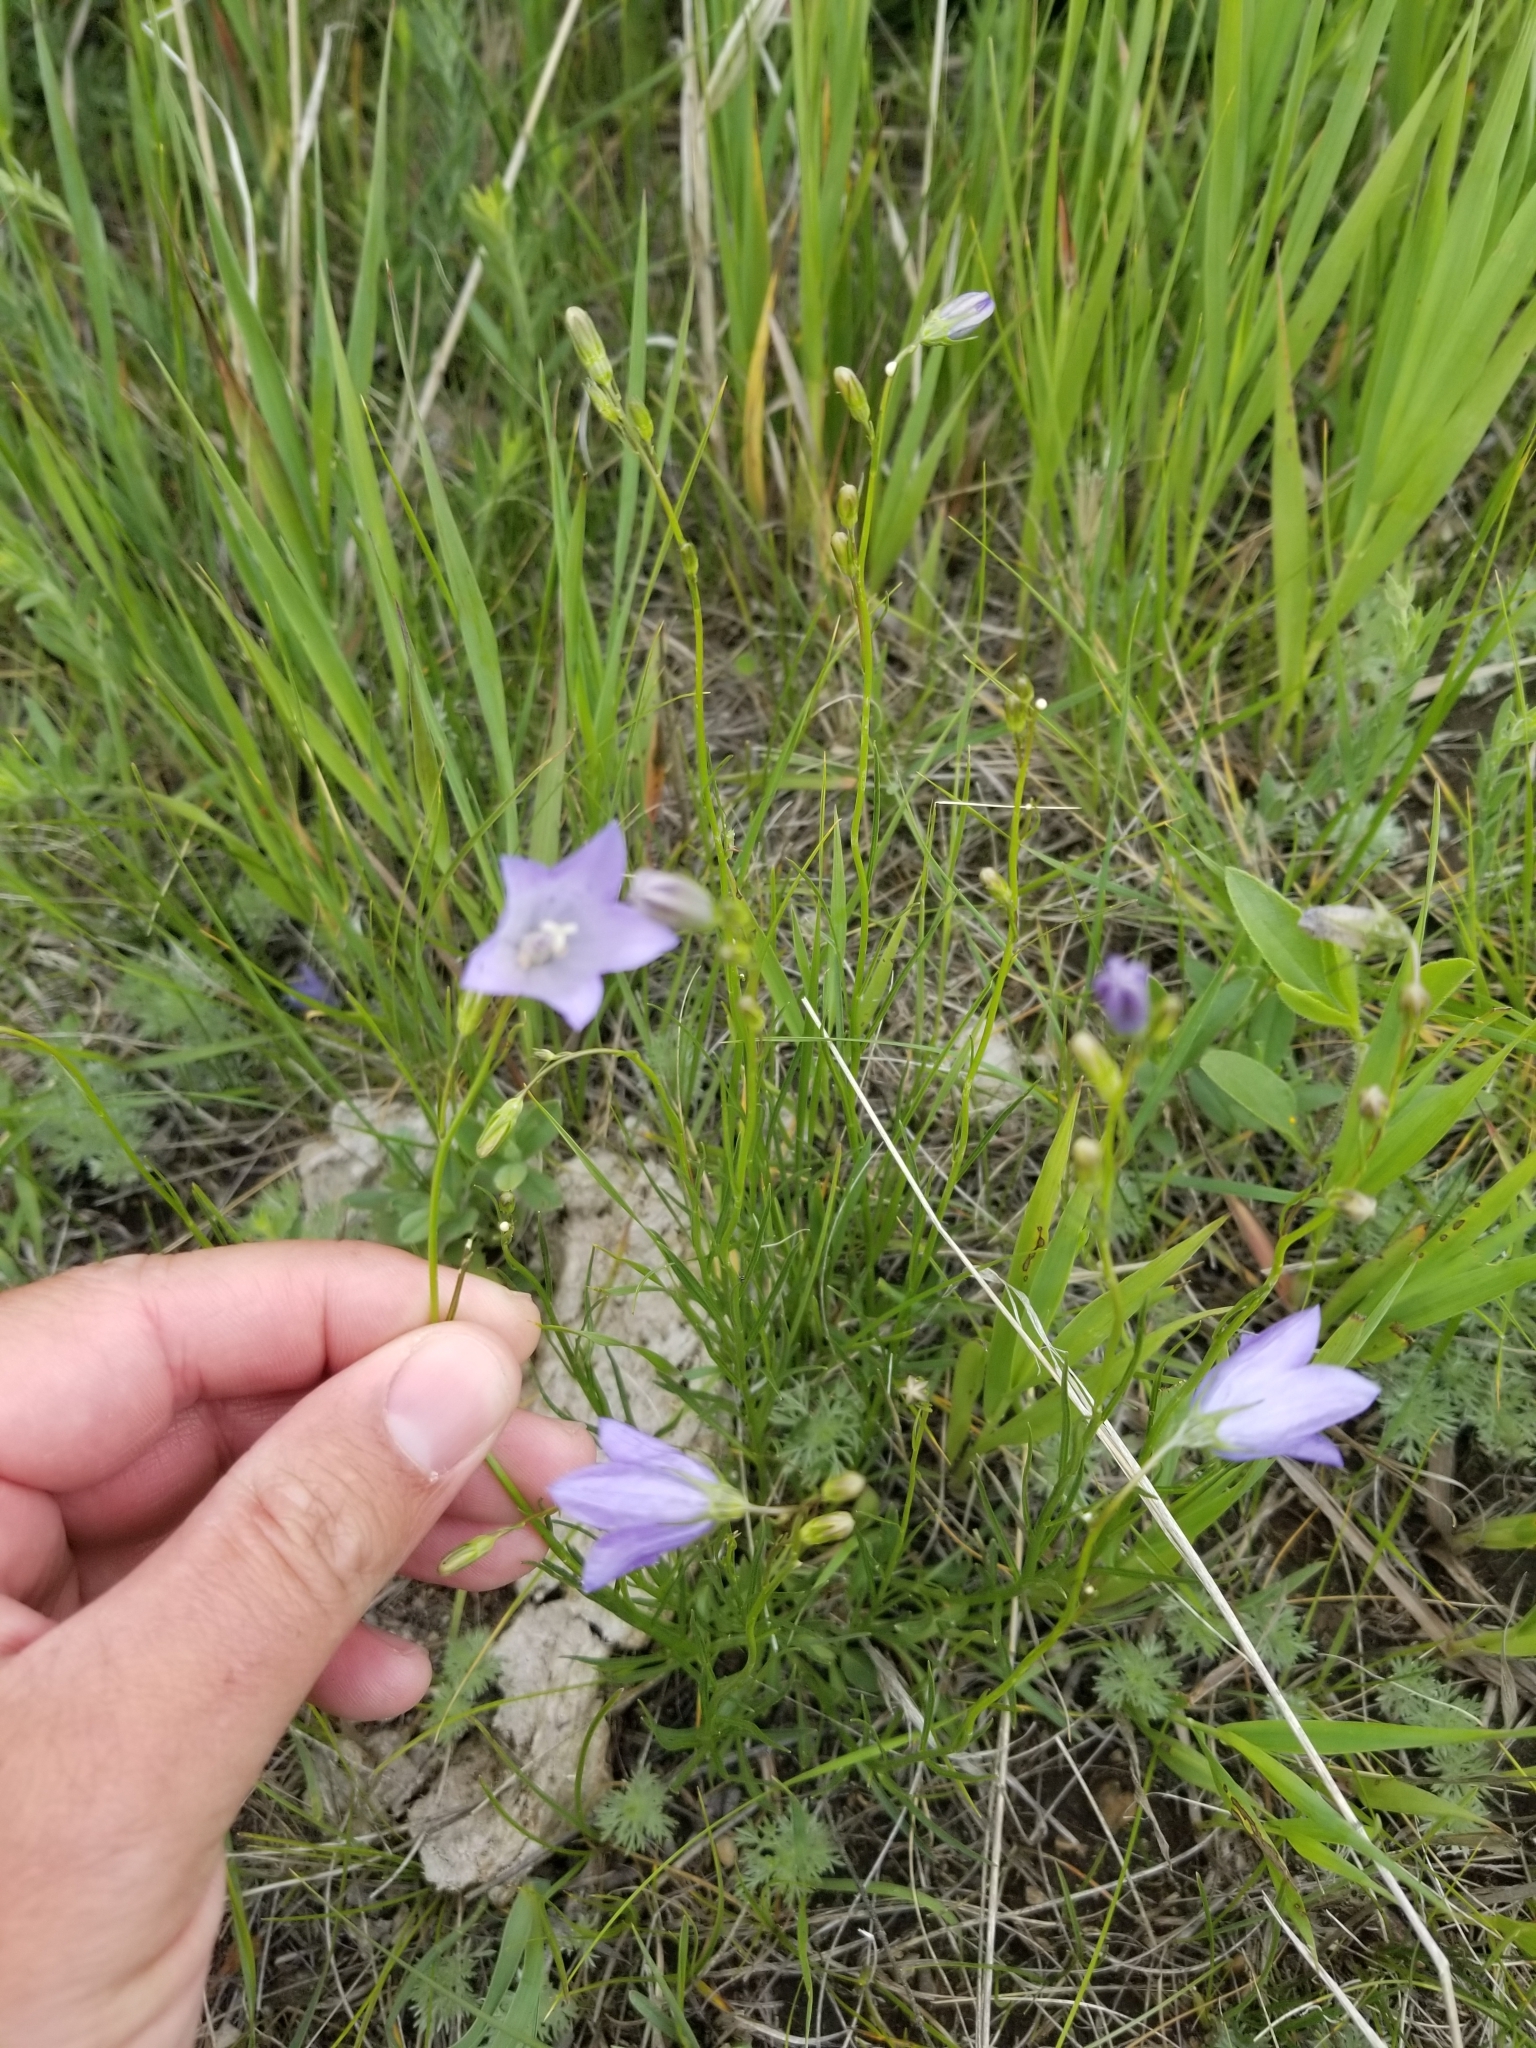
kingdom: Plantae
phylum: Tracheophyta
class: Magnoliopsida
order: Asterales
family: Campanulaceae
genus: Campanula
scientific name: Campanula petiolata
